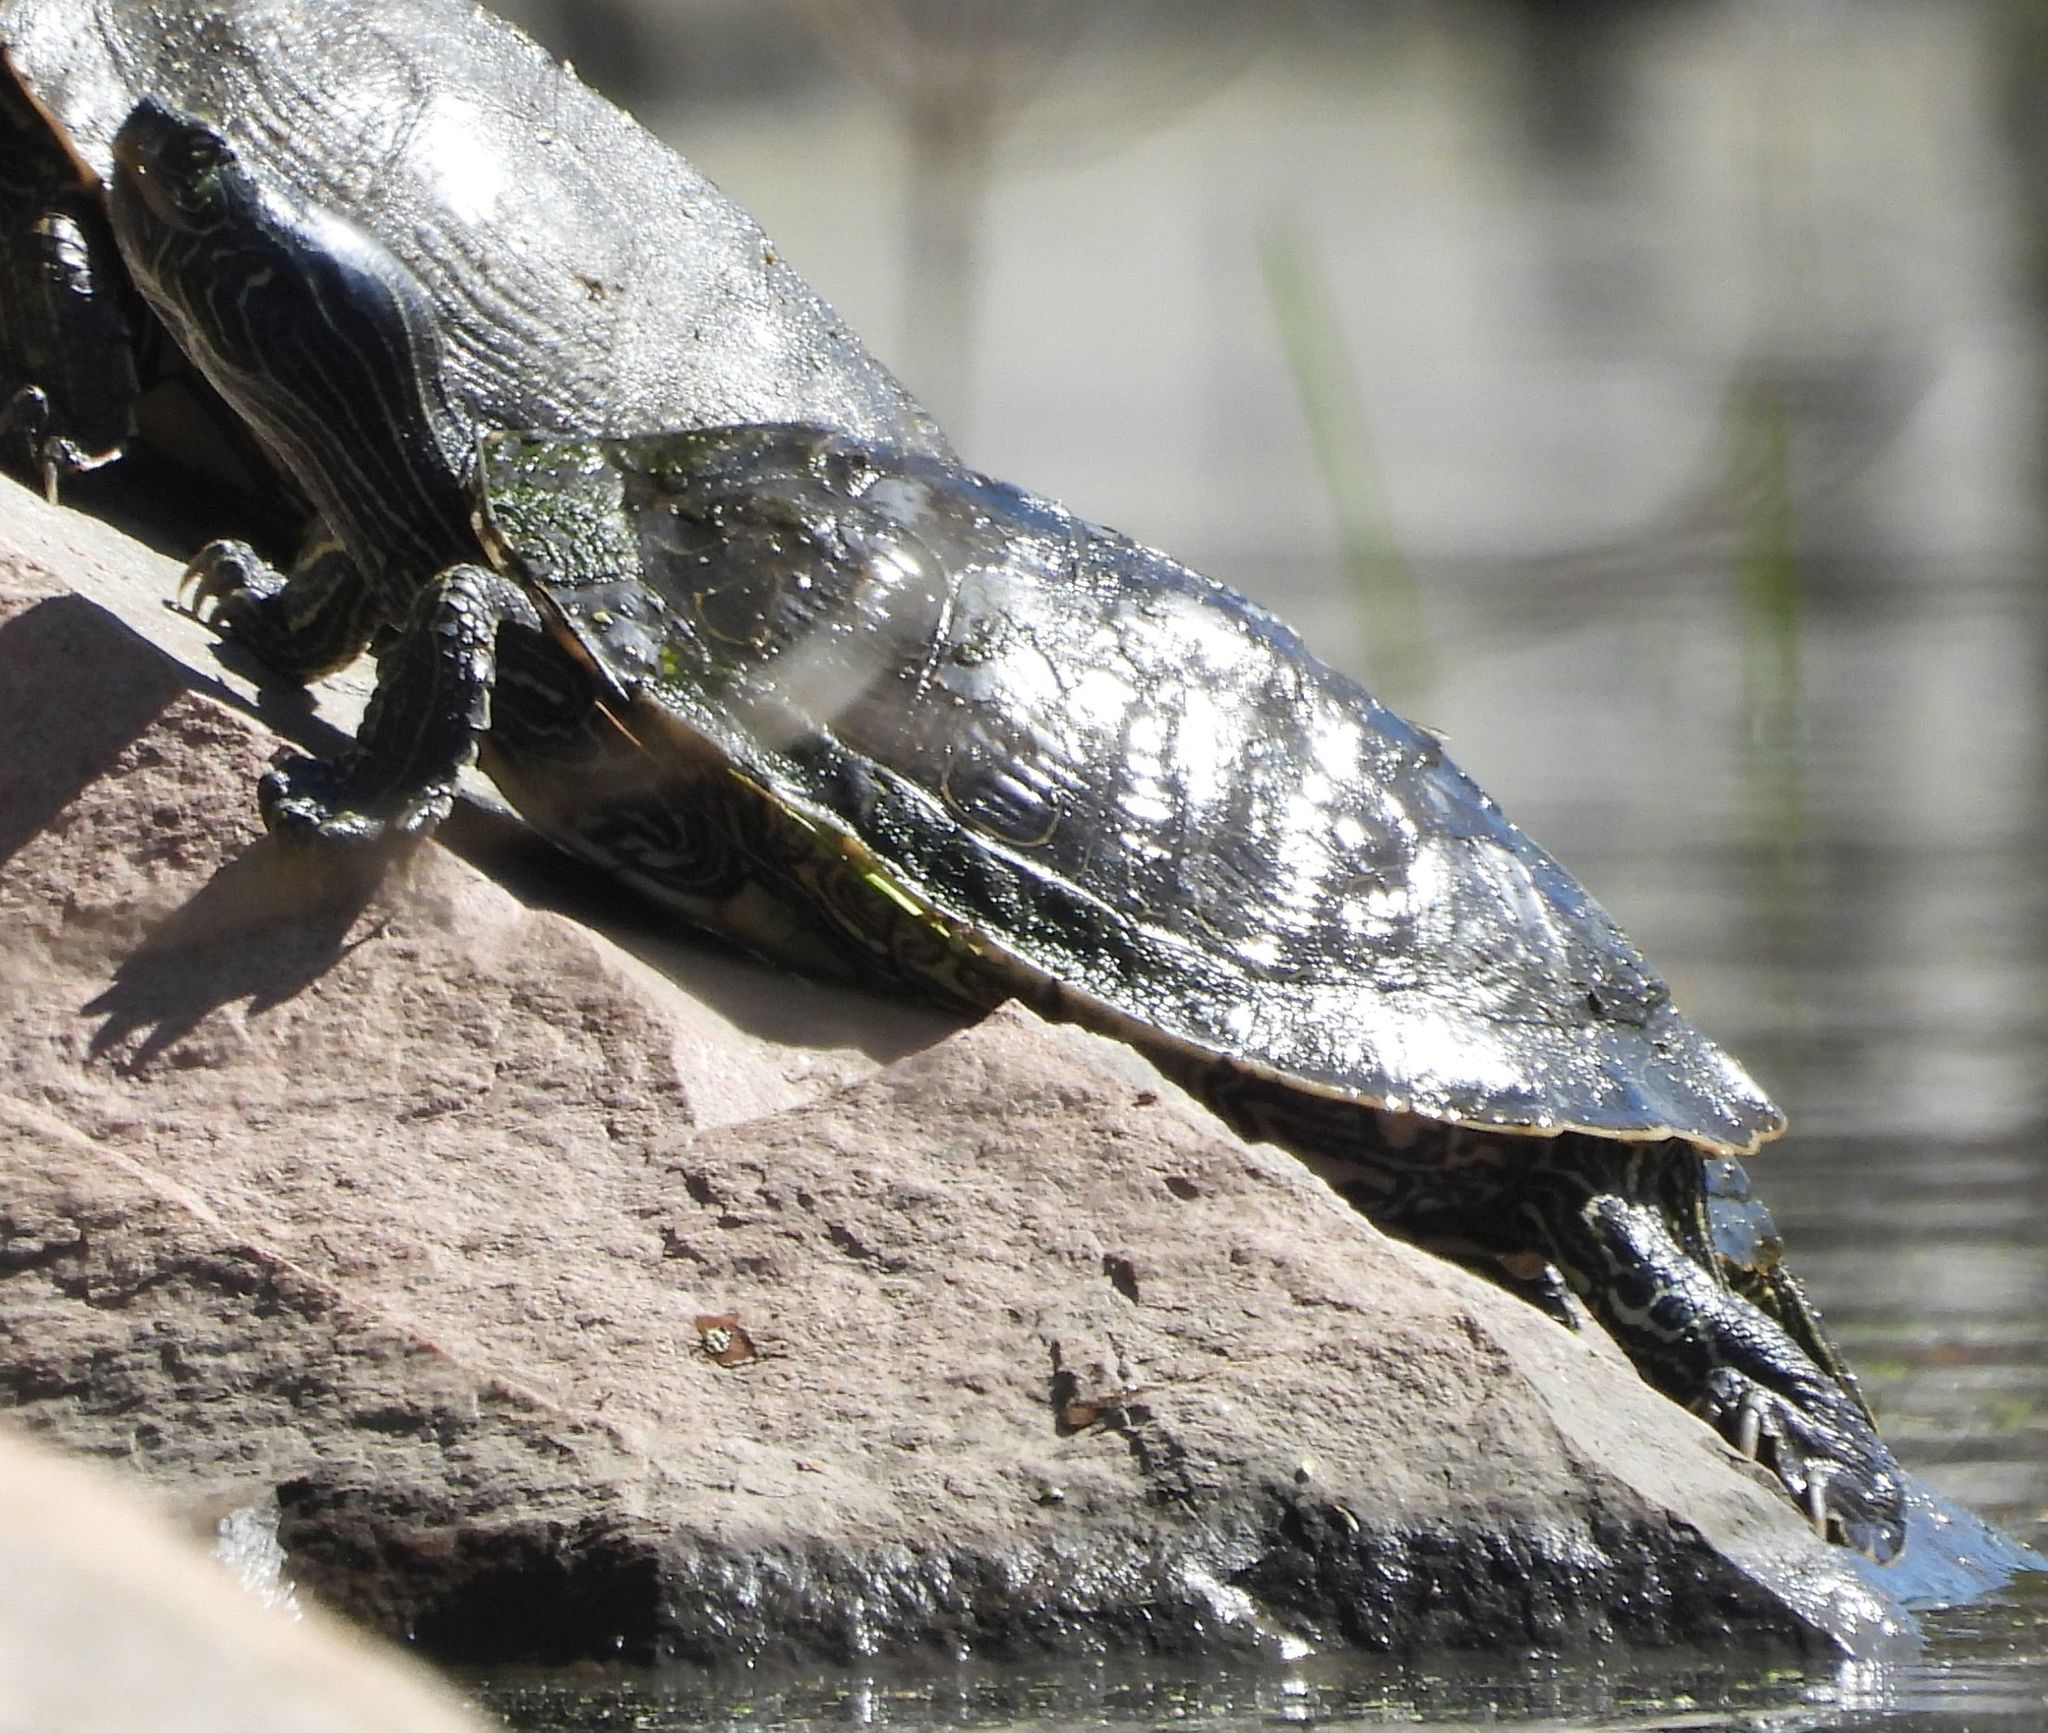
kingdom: Animalia
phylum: Chordata
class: Testudines
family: Emydidae
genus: Graptemys
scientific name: Graptemys geographica
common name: Common map turtle
